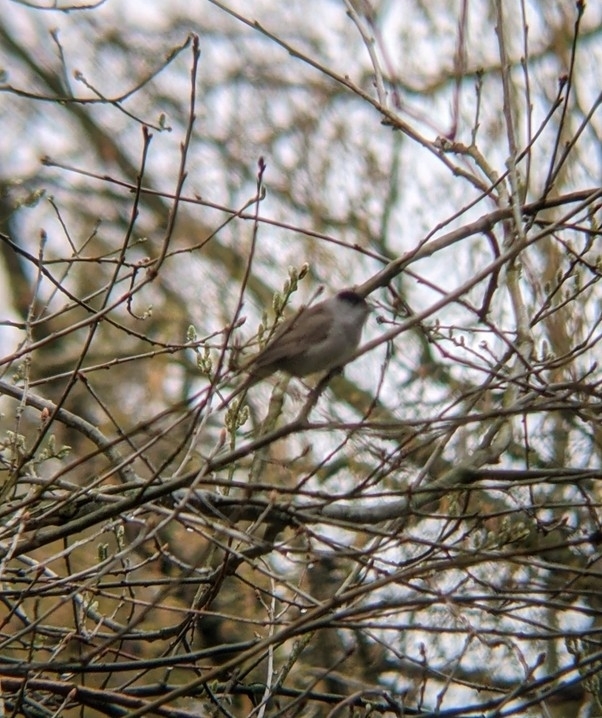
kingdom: Animalia
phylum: Chordata
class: Aves
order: Passeriformes
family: Sylviidae
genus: Sylvia
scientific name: Sylvia atricapilla
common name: Eurasian blackcap
